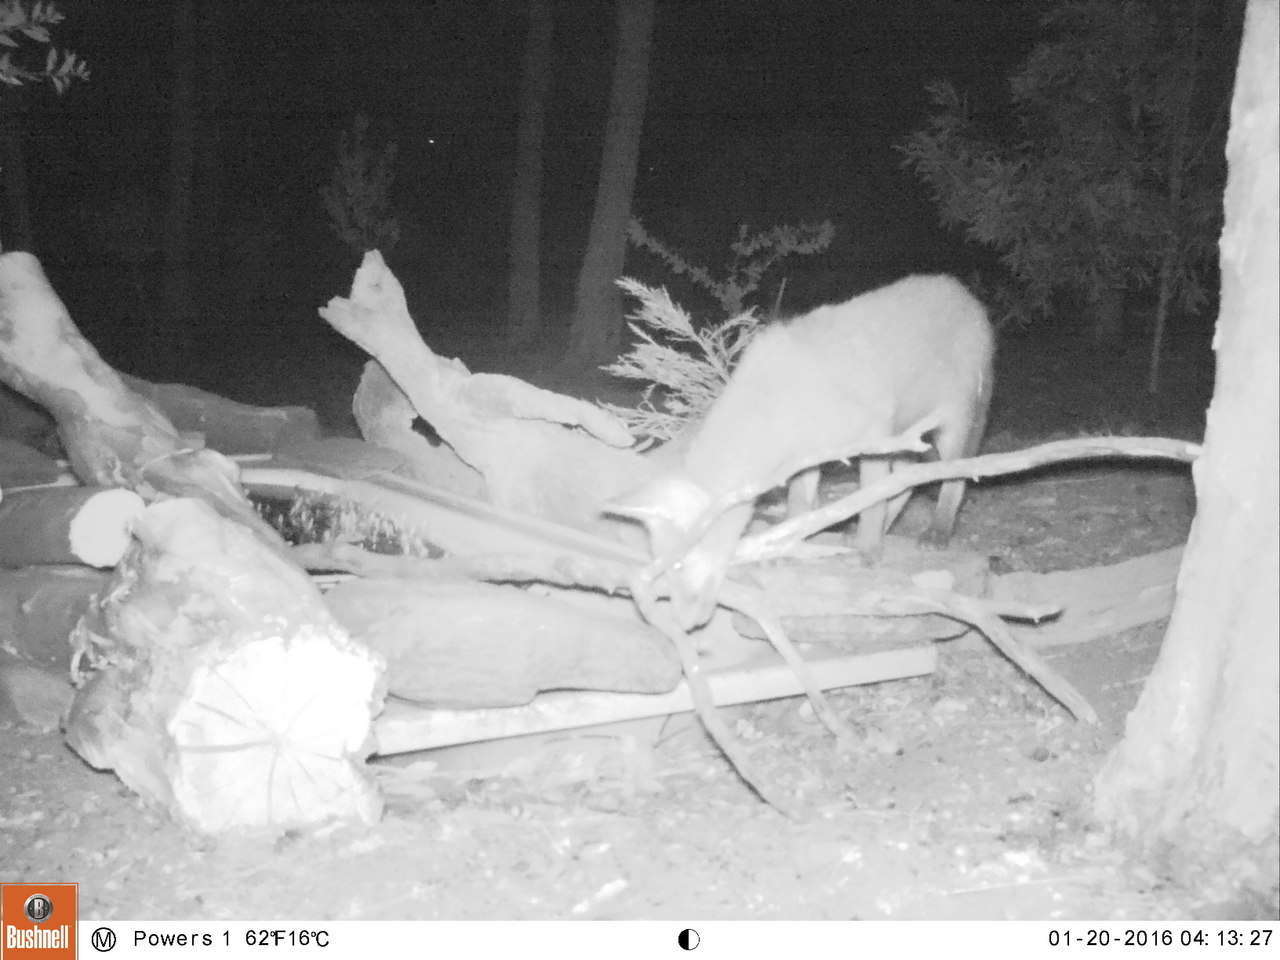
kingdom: Animalia
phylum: Chordata
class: Mammalia
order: Carnivora
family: Canidae
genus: Vulpes
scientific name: Vulpes vulpes
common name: Red fox
